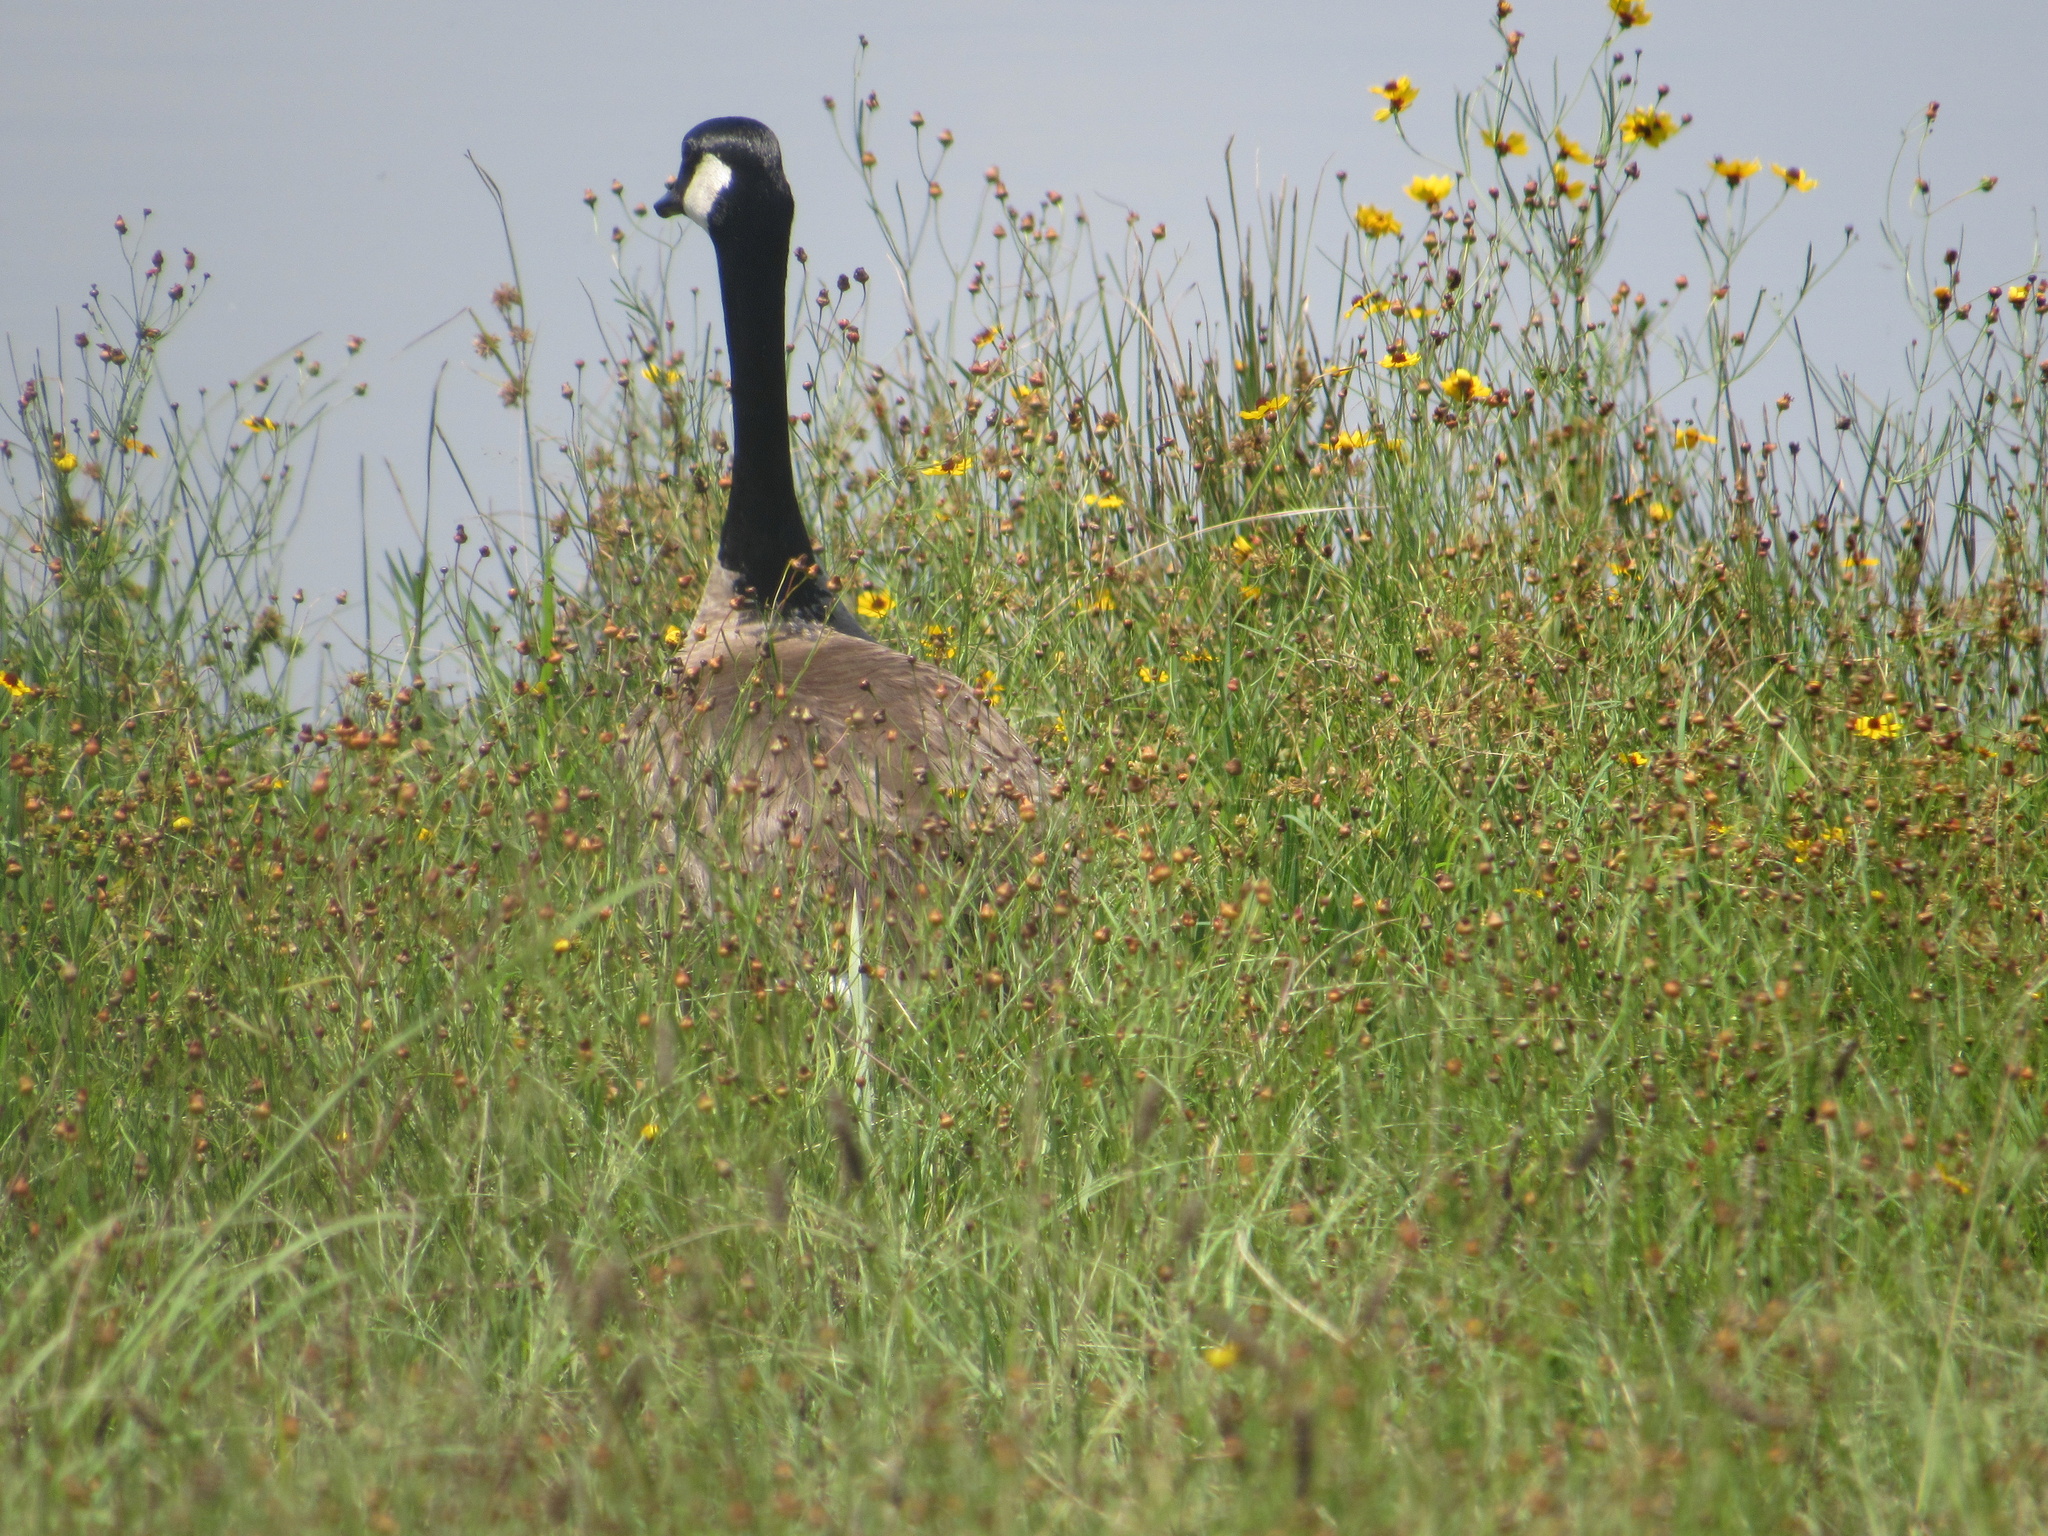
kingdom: Animalia
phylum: Chordata
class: Aves
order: Anseriformes
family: Anatidae
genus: Branta
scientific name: Branta canadensis
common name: Canada goose
